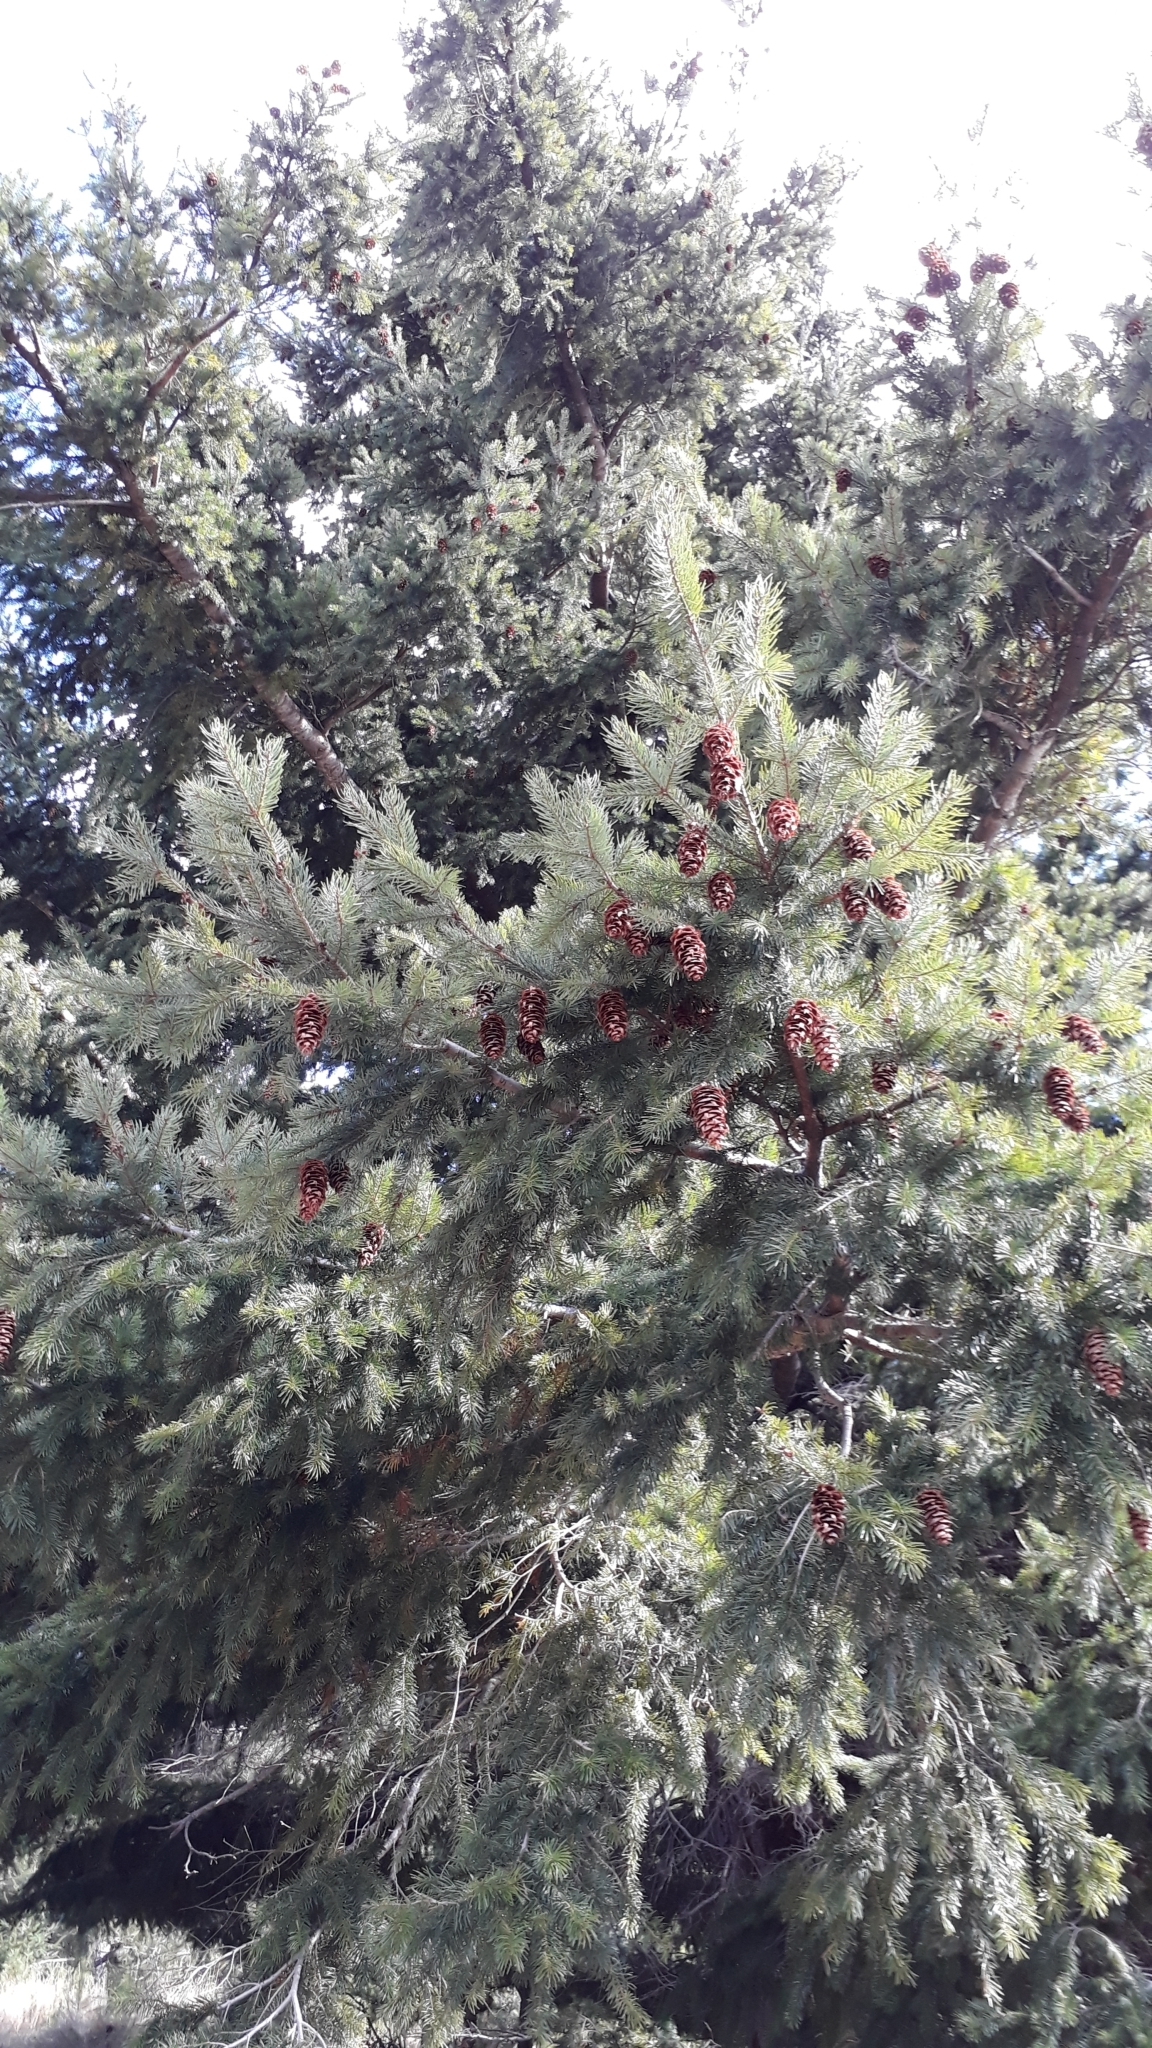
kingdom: Plantae
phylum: Tracheophyta
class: Pinopsida
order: Pinales
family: Pinaceae
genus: Pseudotsuga
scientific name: Pseudotsuga menziesii
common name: Douglas fir
